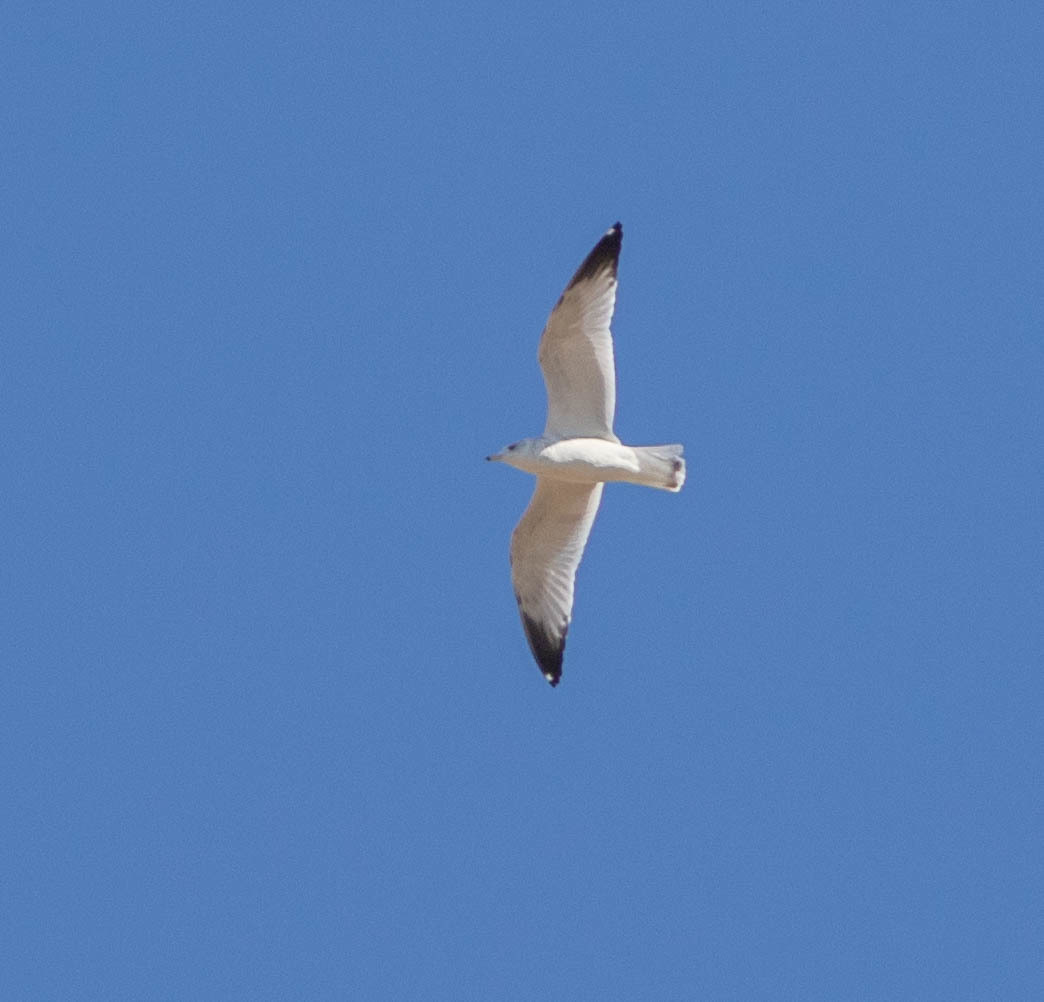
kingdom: Animalia
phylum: Chordata
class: Aves
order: Charadriiformes
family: Laridae
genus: Larus
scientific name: Larus delawarensis
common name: Ring-billed gull
